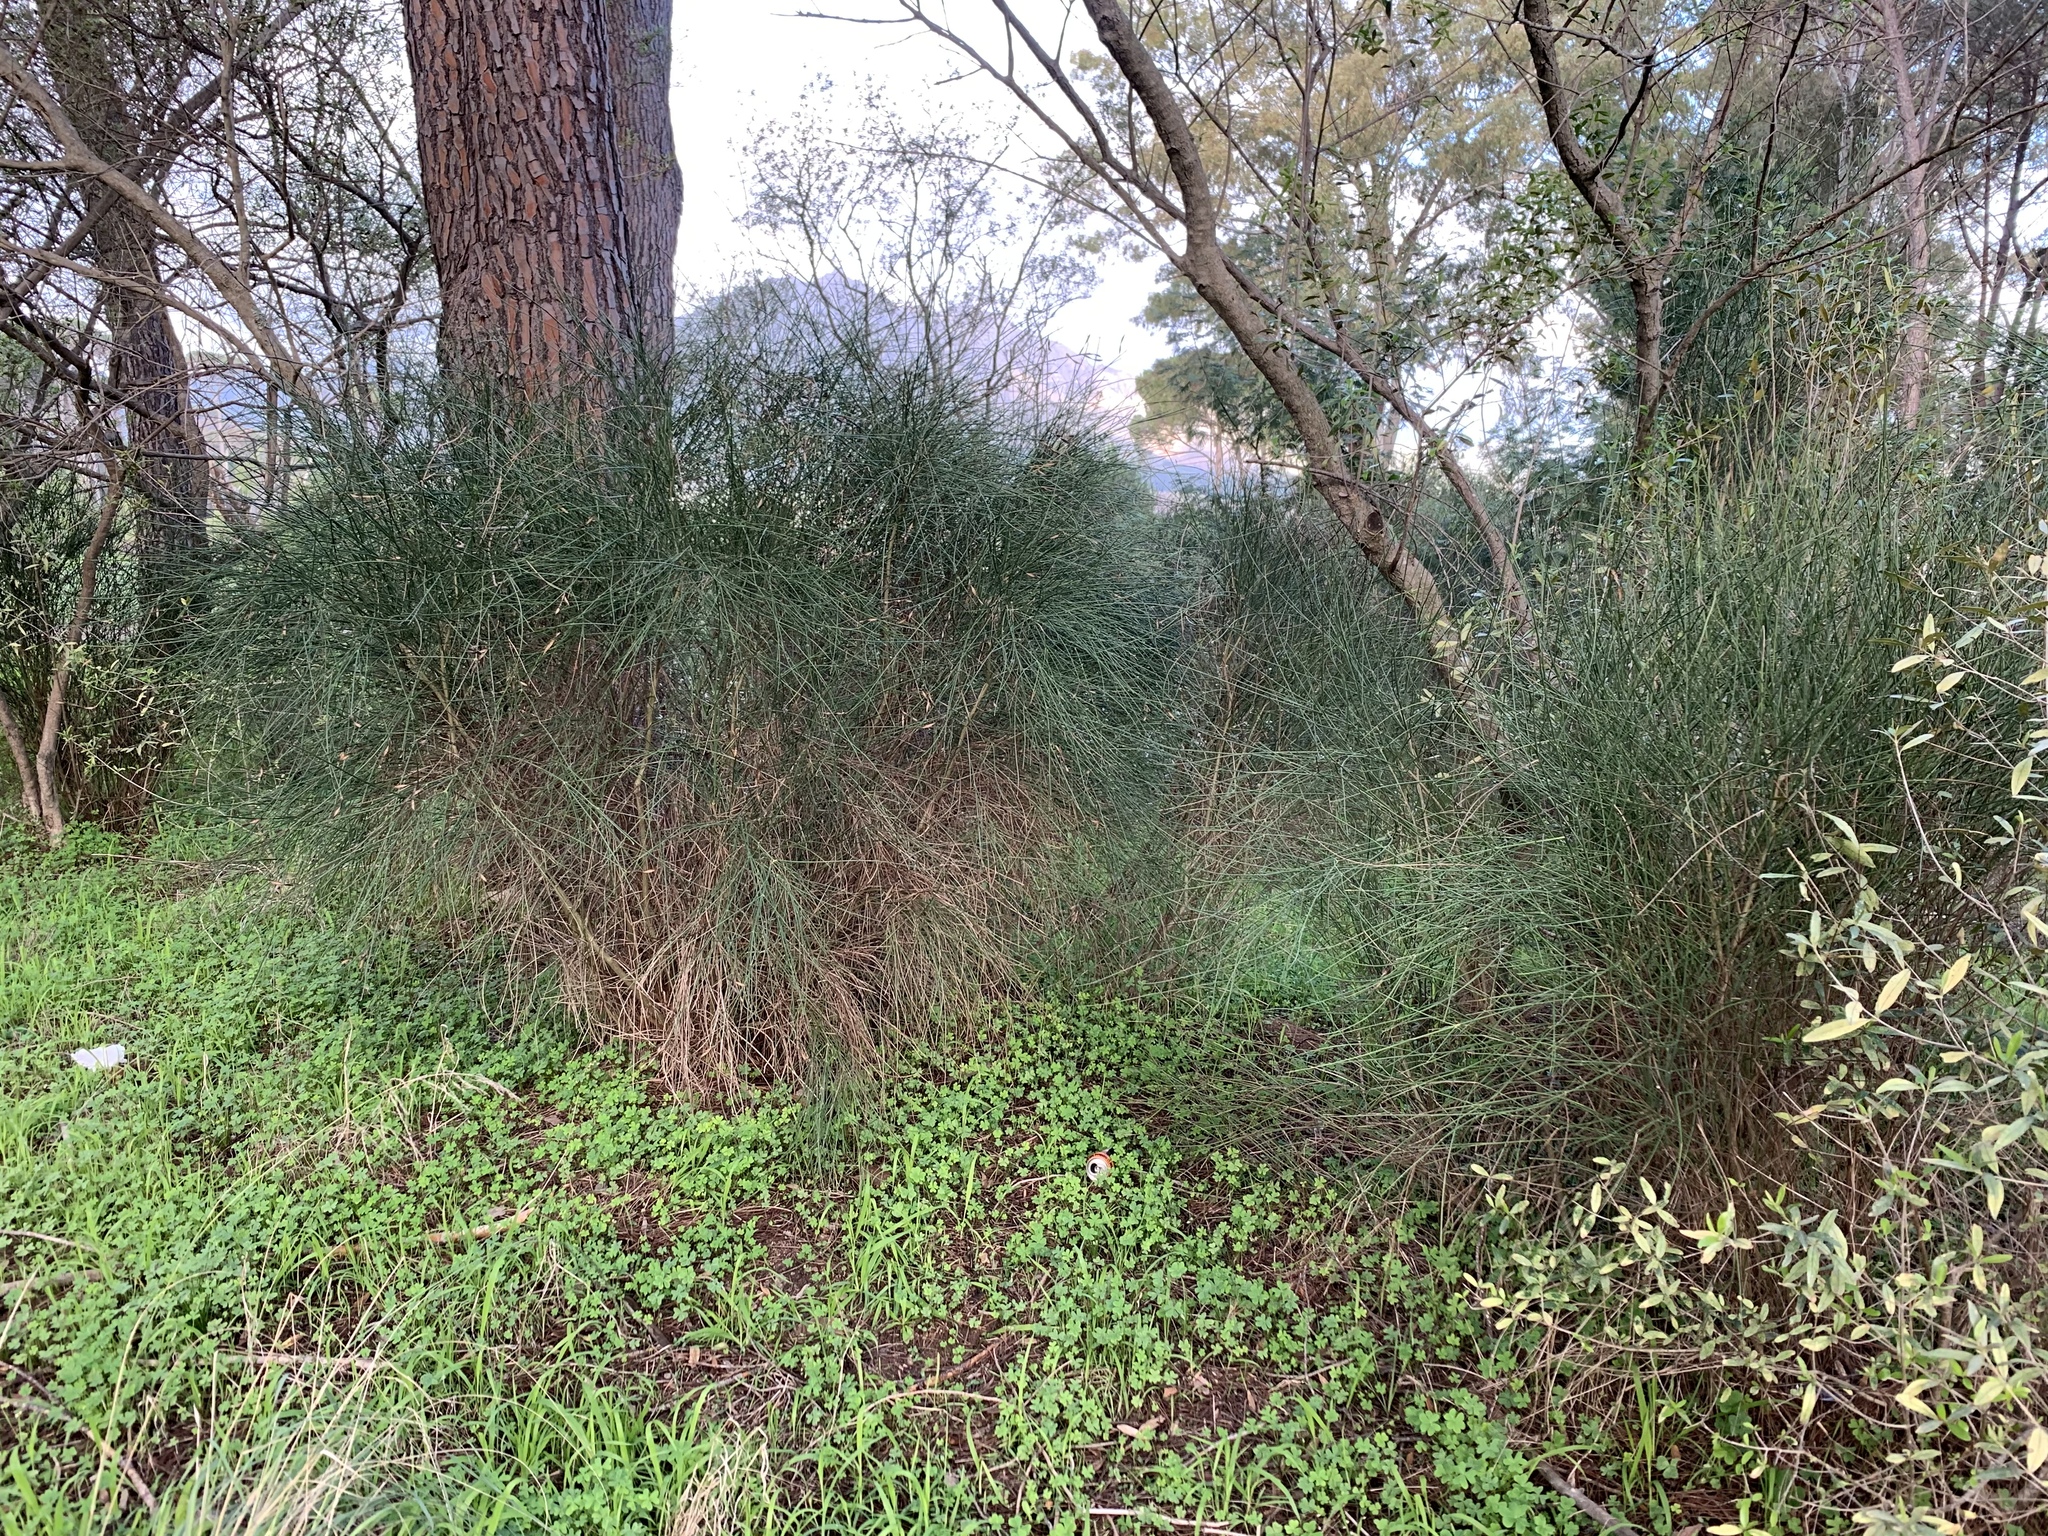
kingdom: Plantae
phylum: Tracheophyta
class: Magnoliopsida
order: Fabales
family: Fabaceae
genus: Spartium
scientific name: Spartium junceum
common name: Spanish broom
